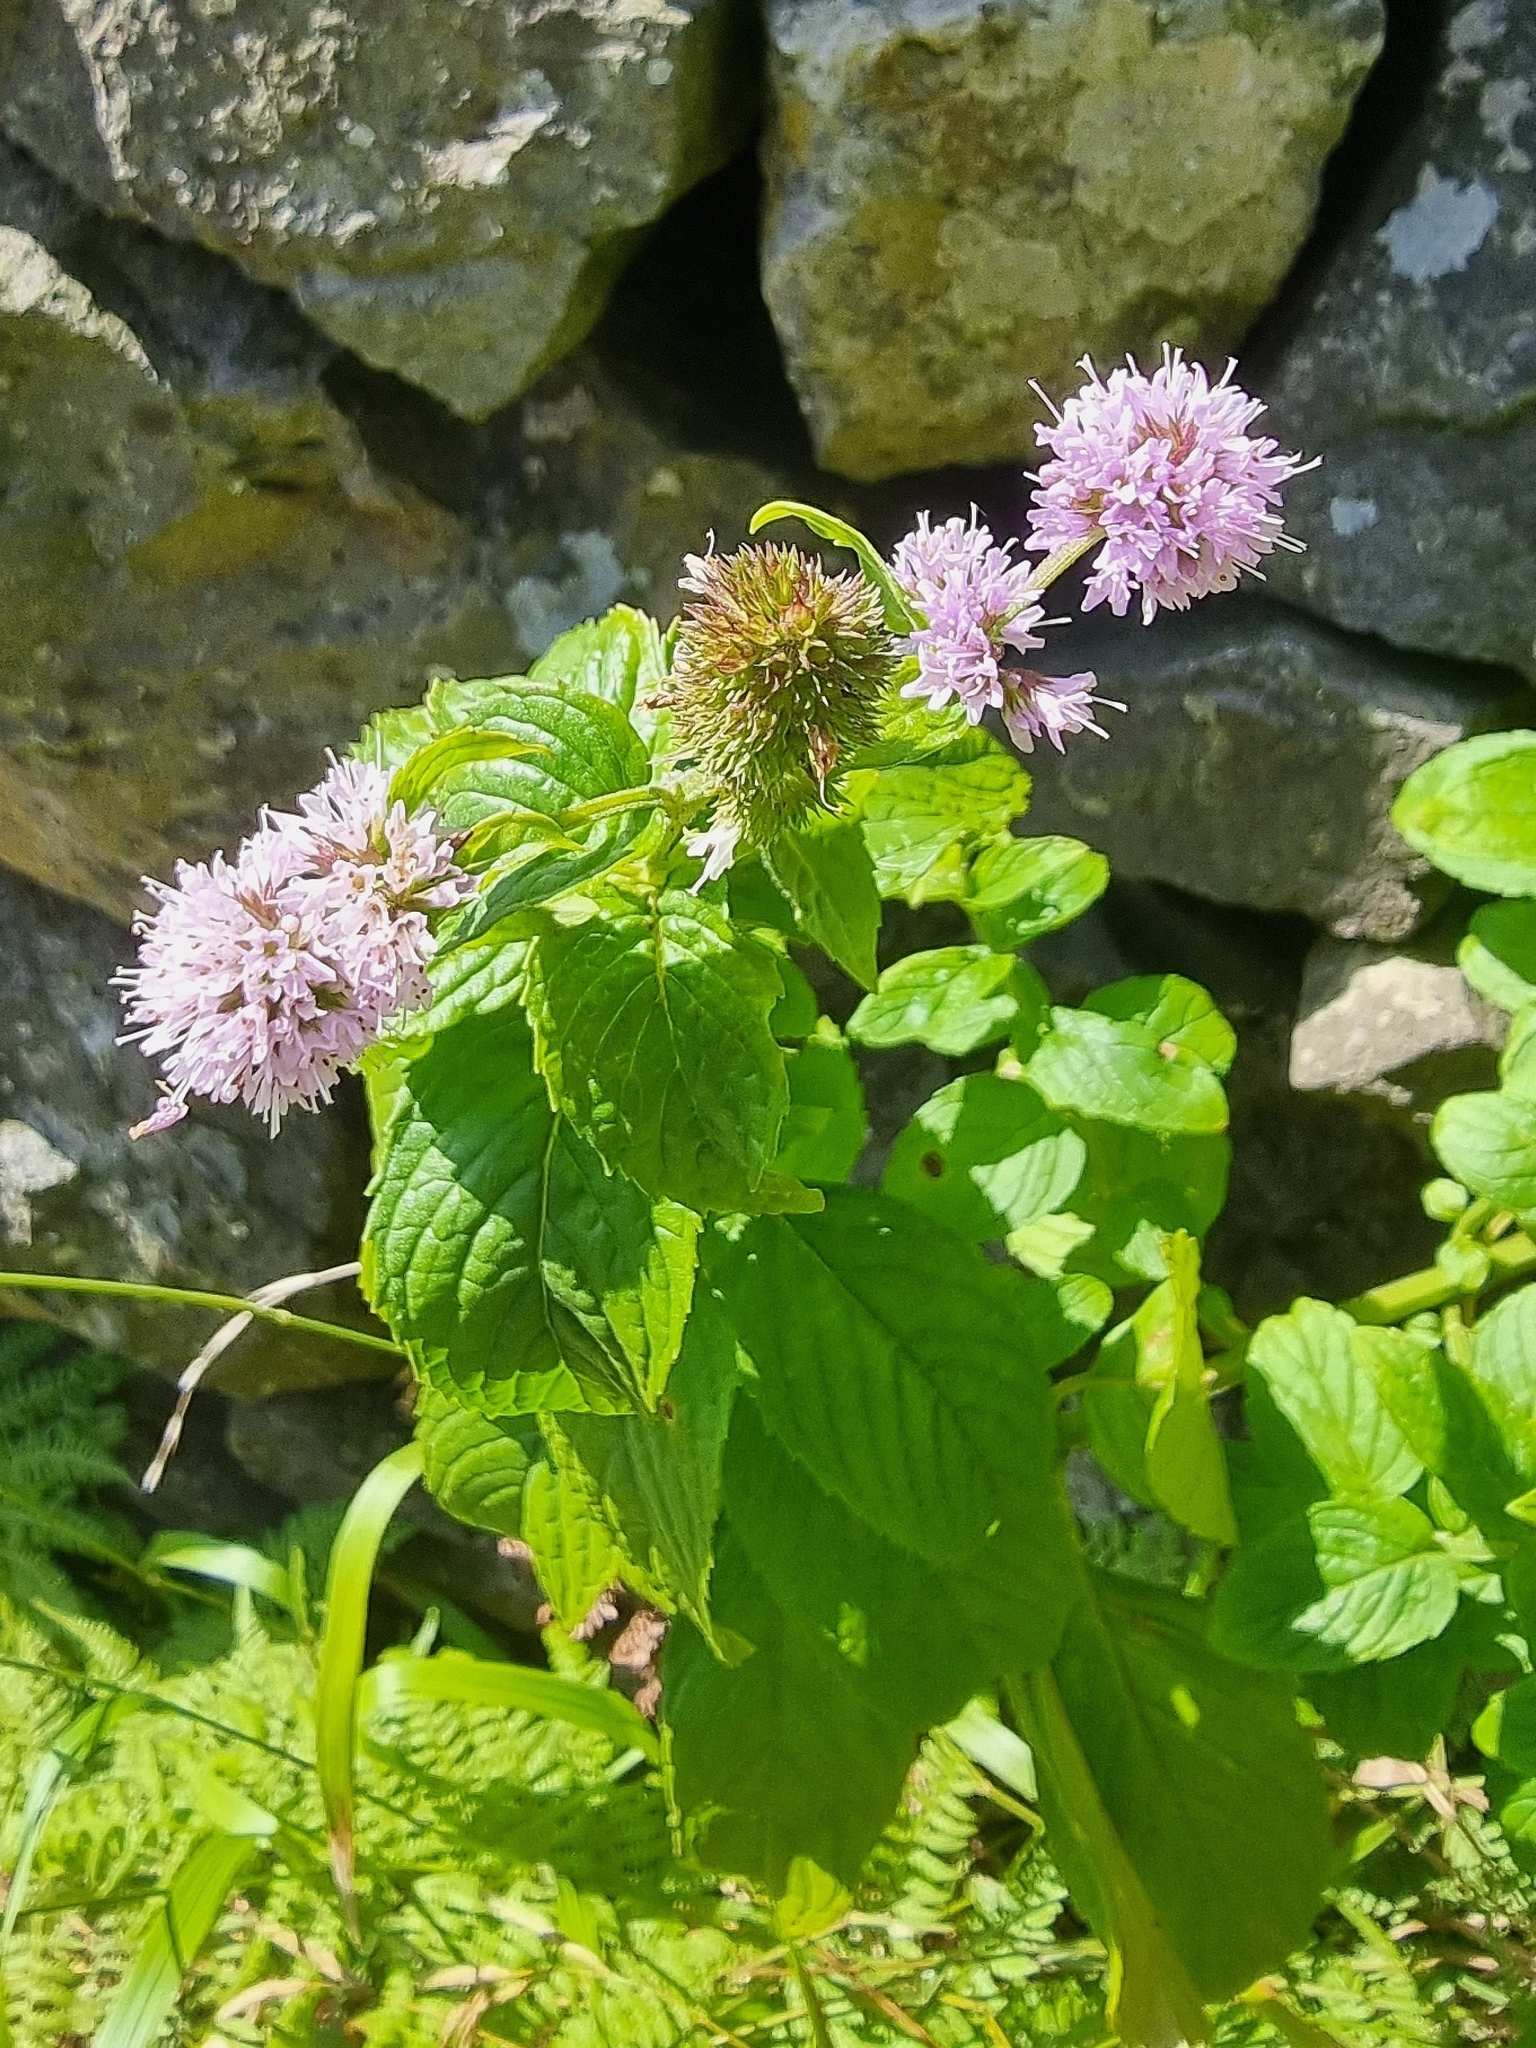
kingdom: Plantae
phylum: Tracheophyta
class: Magnoliopsida
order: Lamiales
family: Lamiaceae
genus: Mentha
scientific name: Mentha aquatica
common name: Water mint
